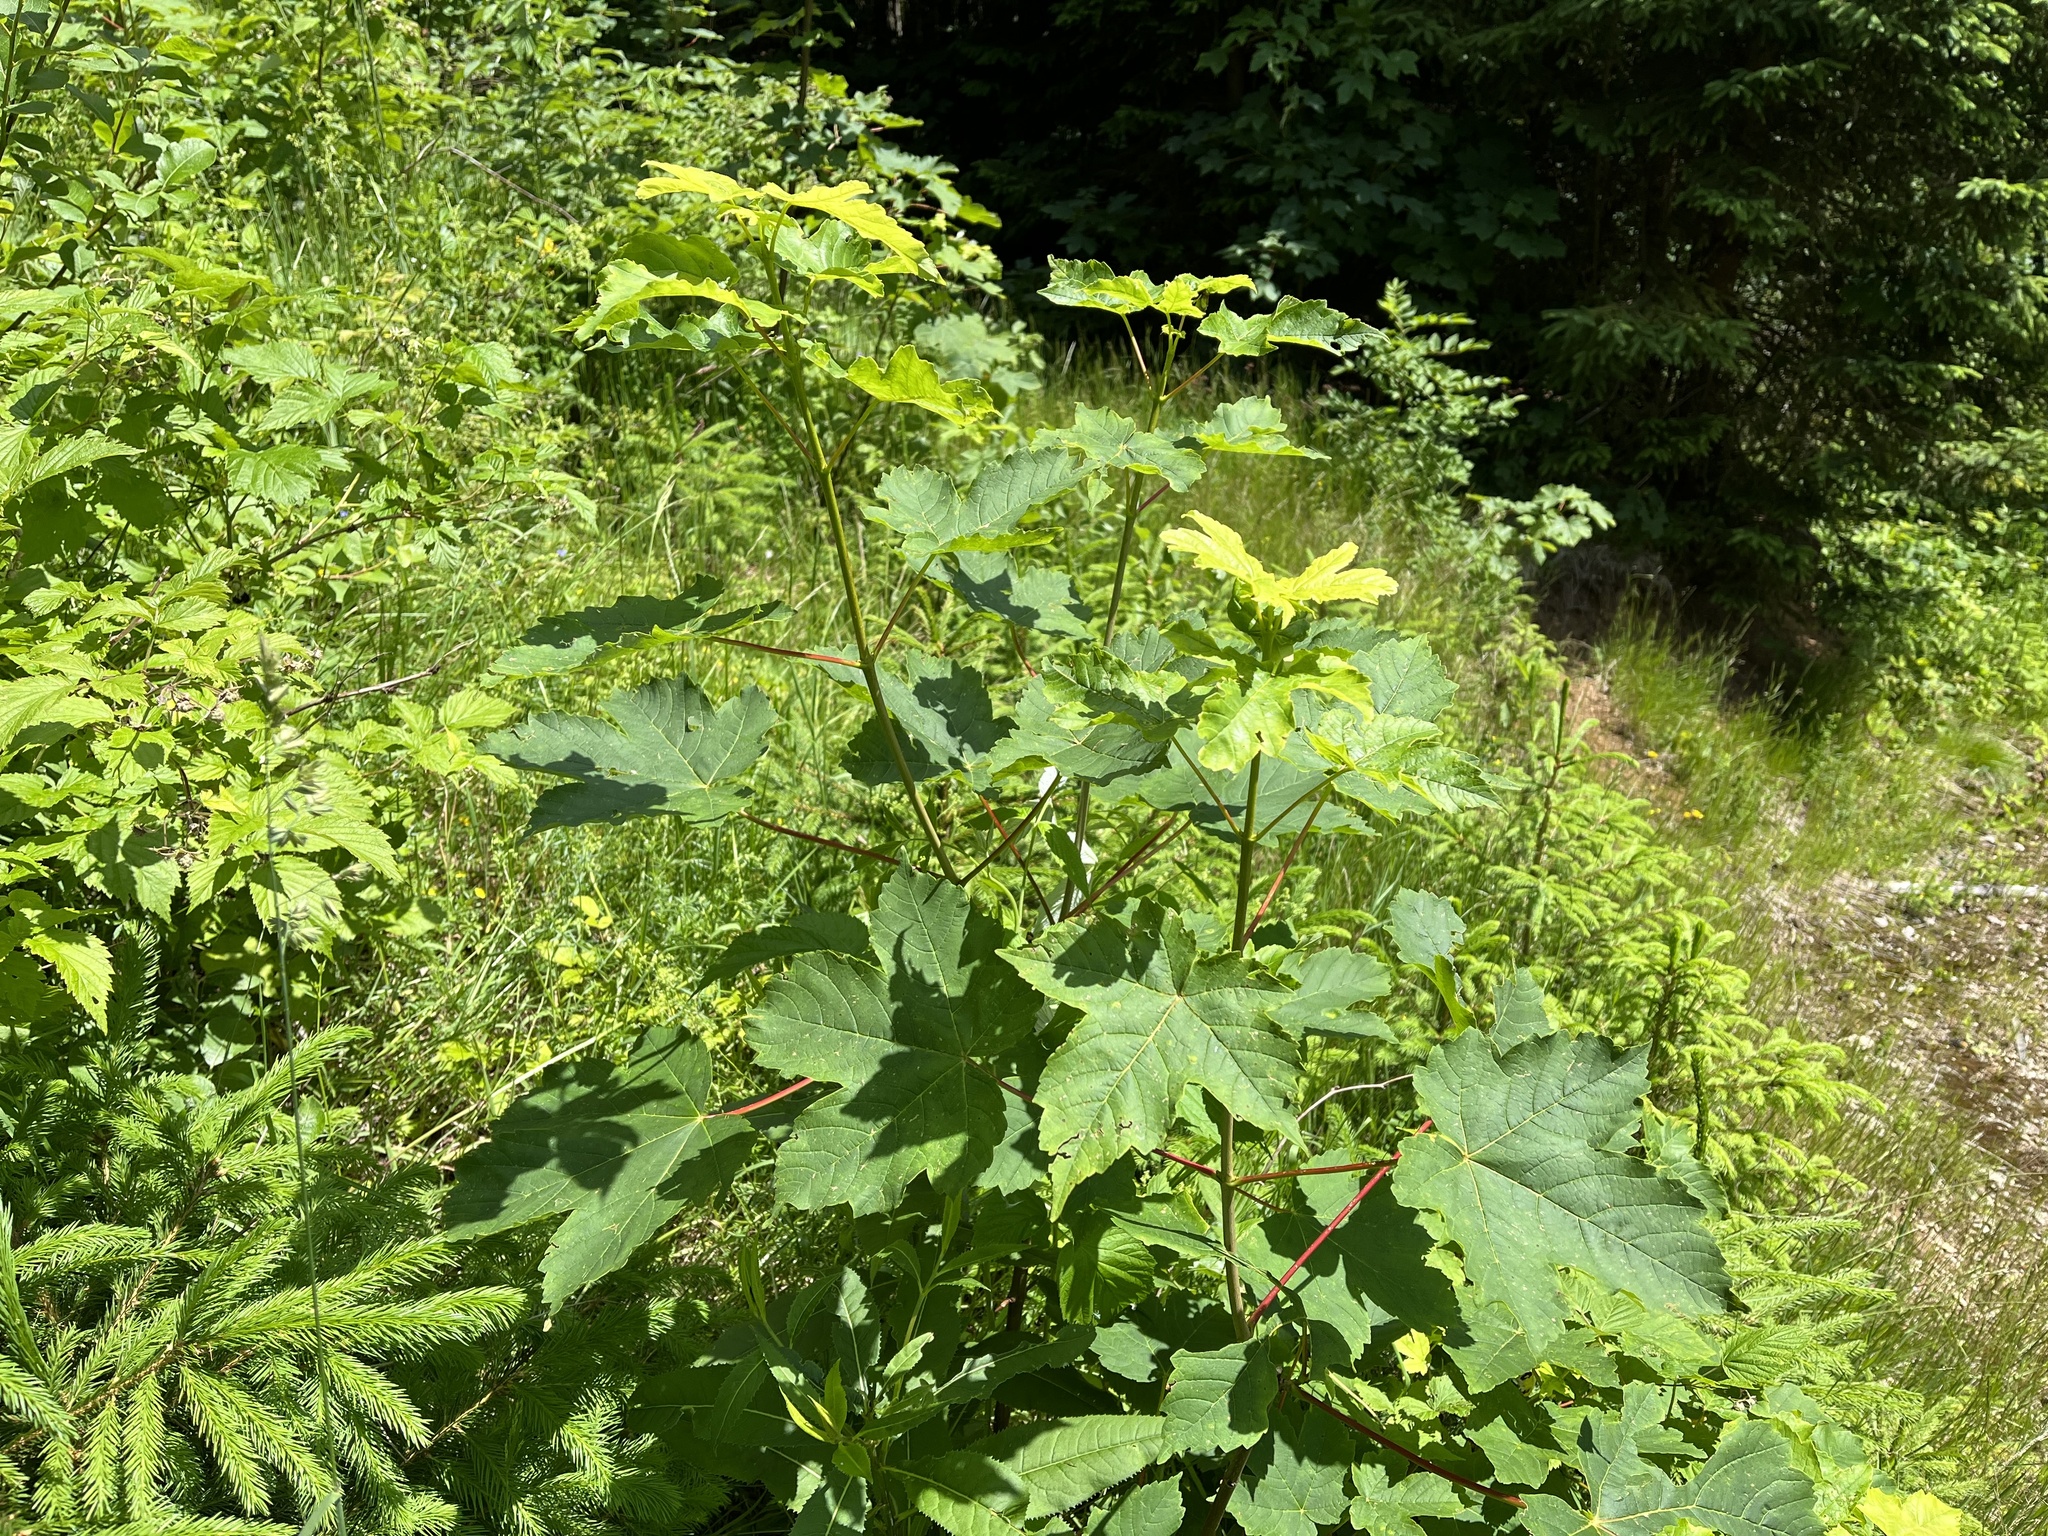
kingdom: Plantae
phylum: Tracheophyta
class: Magnoliopsida
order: Sapindales
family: Sapindaceae
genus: Acer
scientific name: Acer pseudoplatanus
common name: Sycamore
